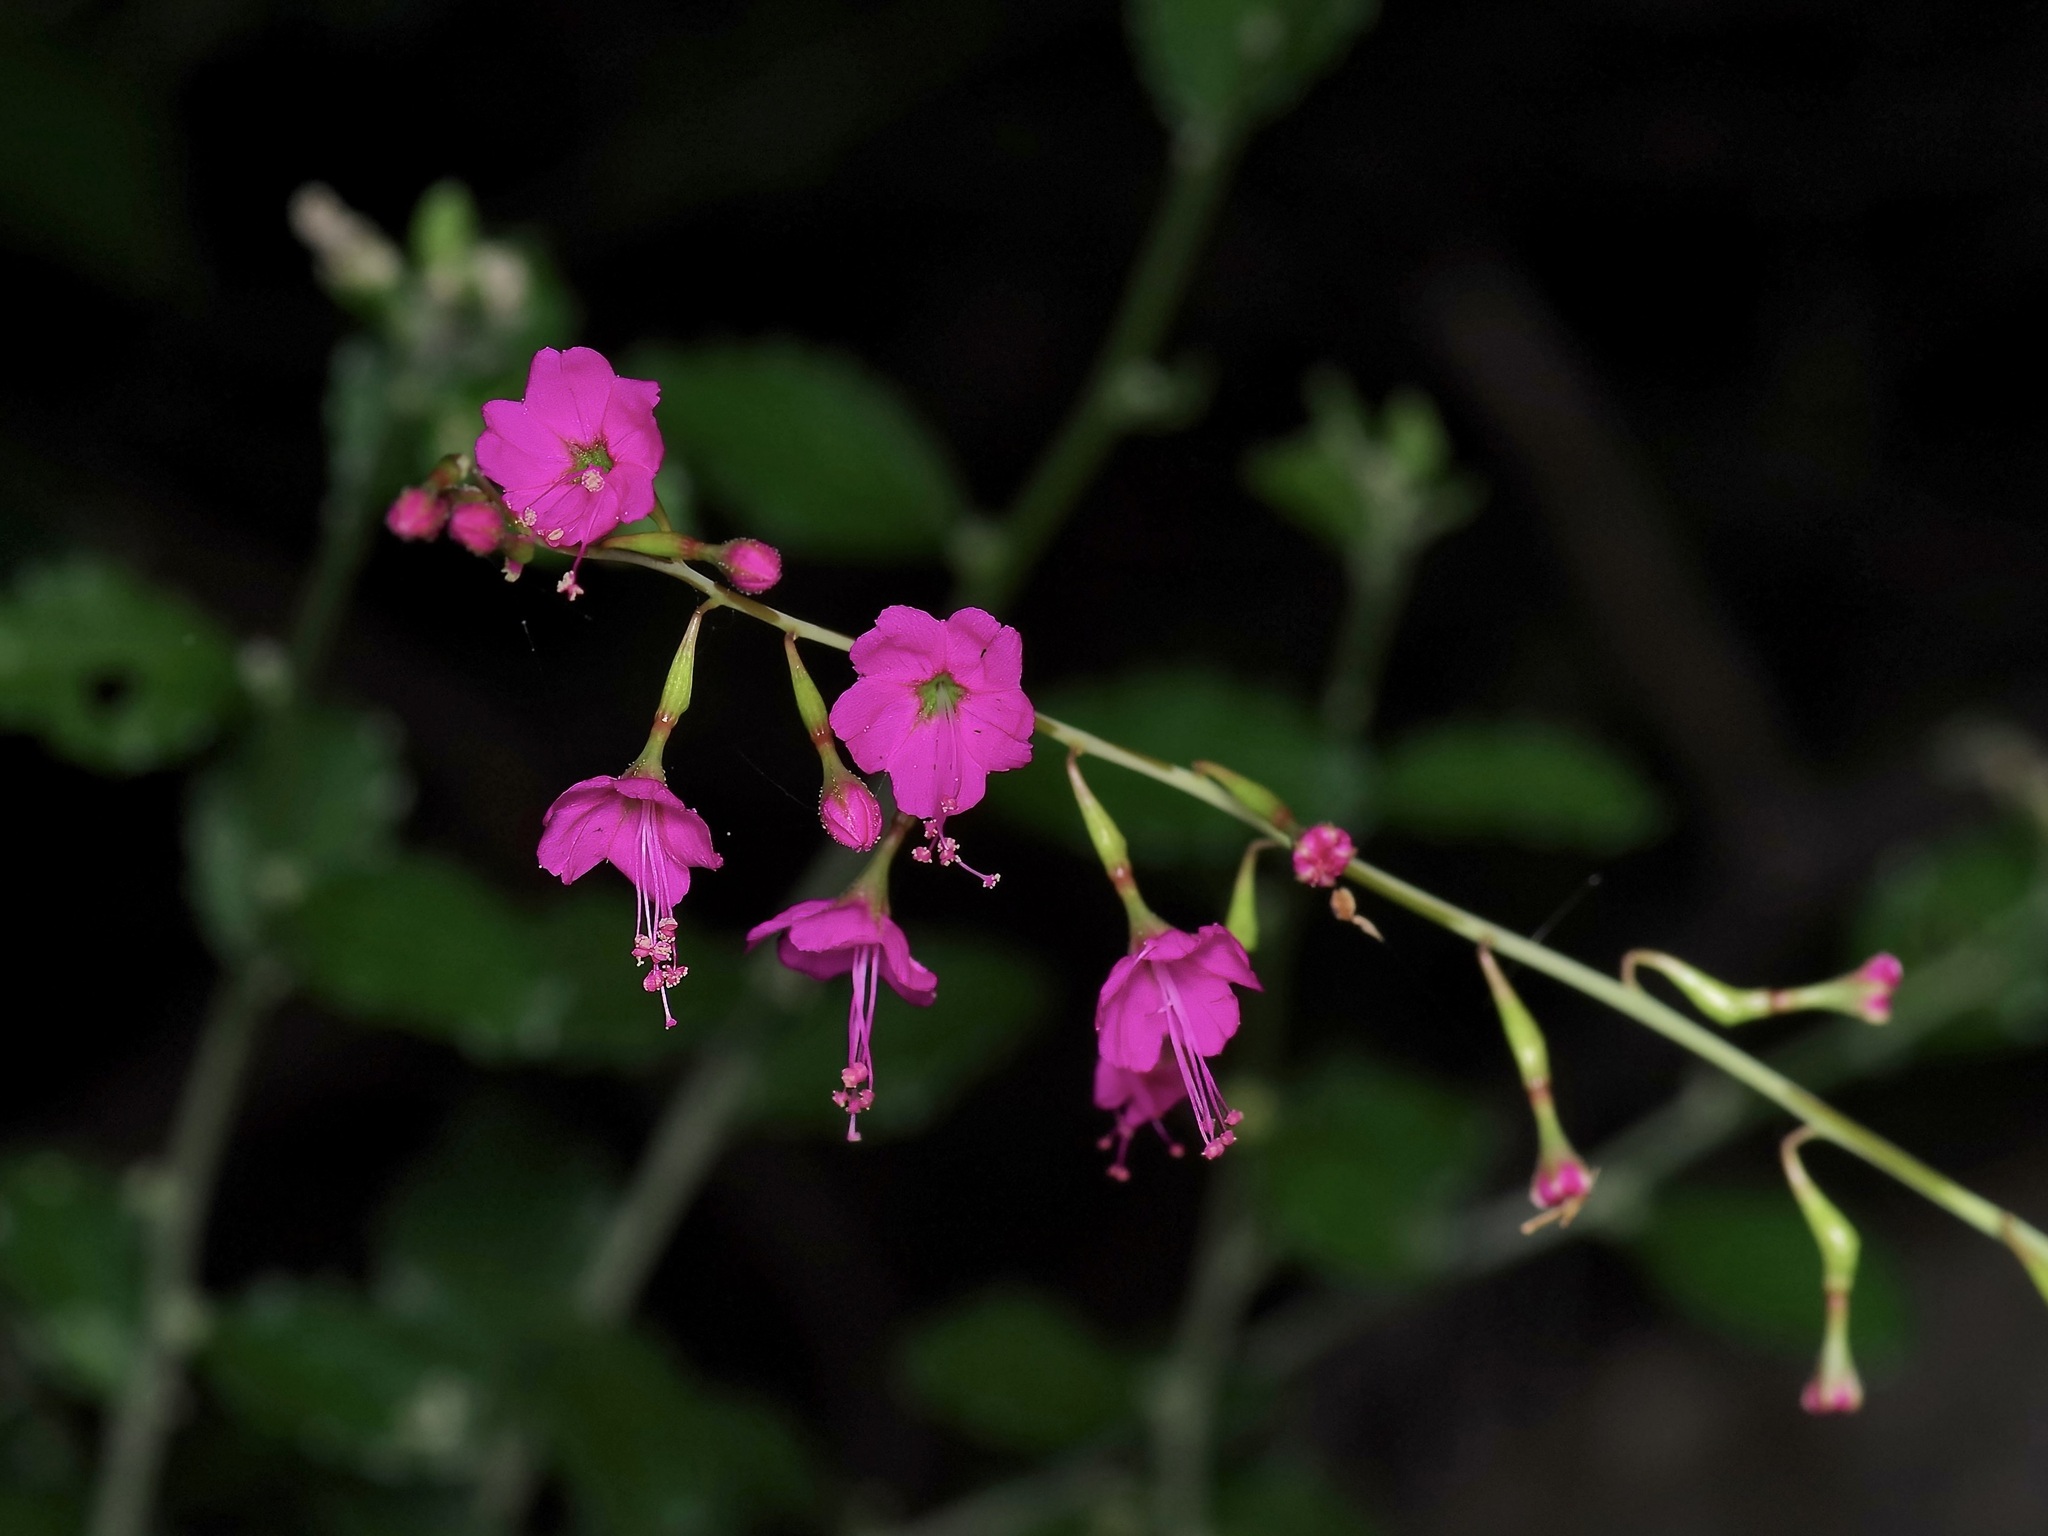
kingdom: Plantae
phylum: Tracheophyta
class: Magnoliopsida
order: Caryophyllales
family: Nyctaginaceae
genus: Cyphomeris
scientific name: Cyphomeris gypsophiloides
